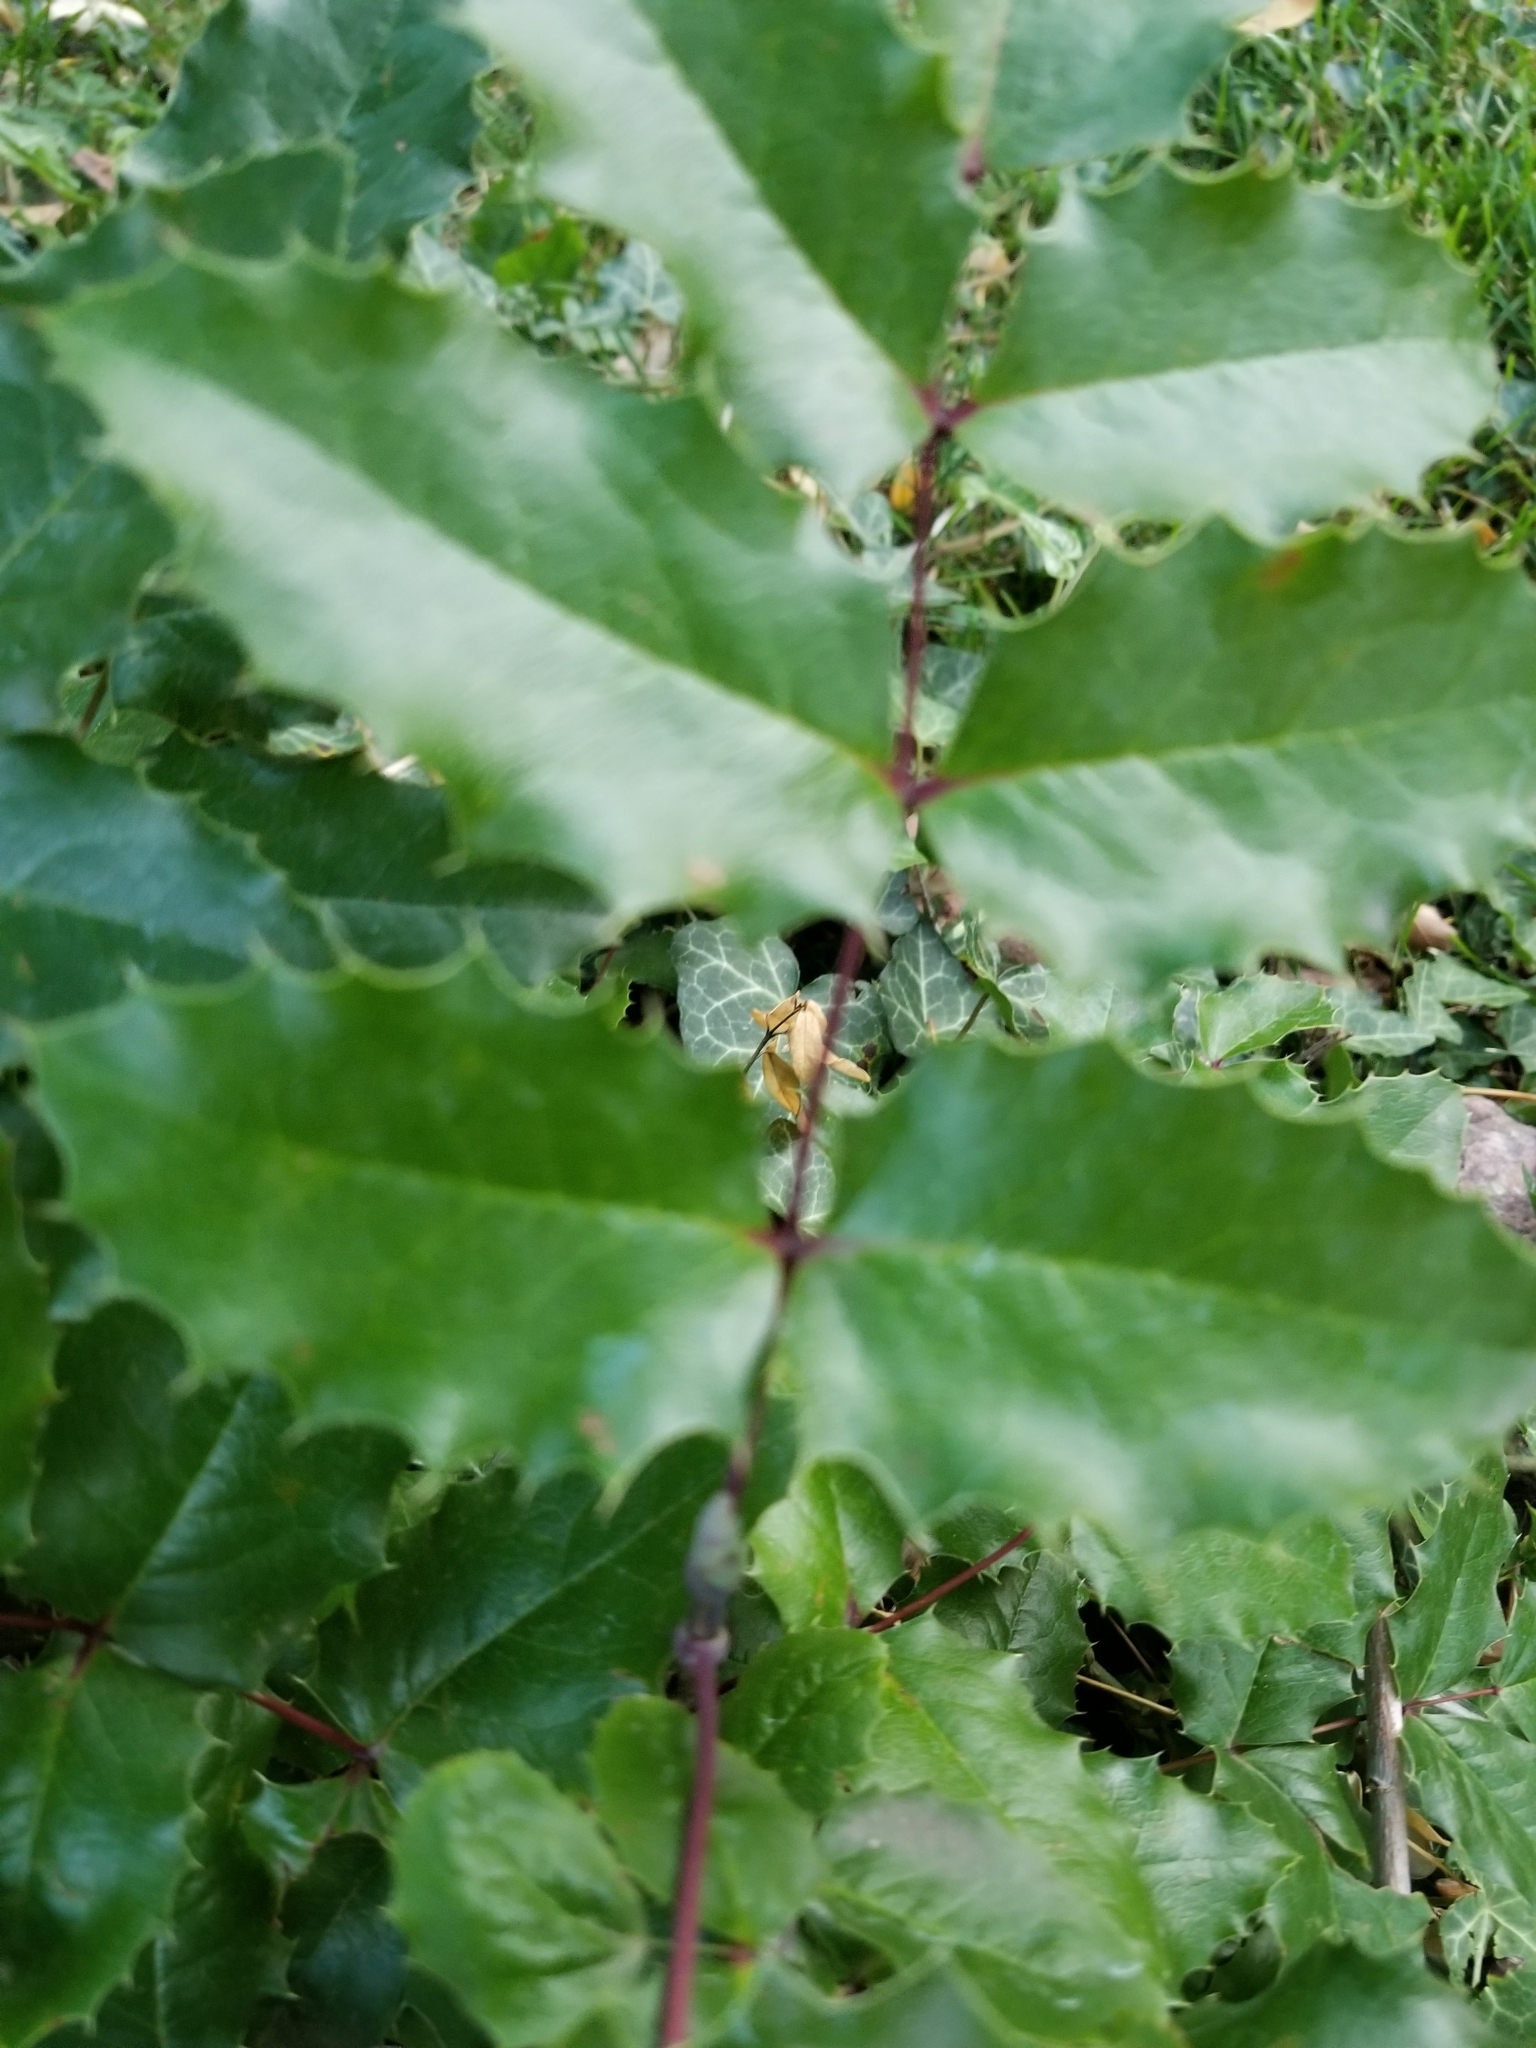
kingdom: Plantae
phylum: Tracheophyta
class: Magnoliopsida
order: Ranunculales
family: Berberidaceae
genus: Mahonia
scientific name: Mahonia repens
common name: Creeping oregon-grape
